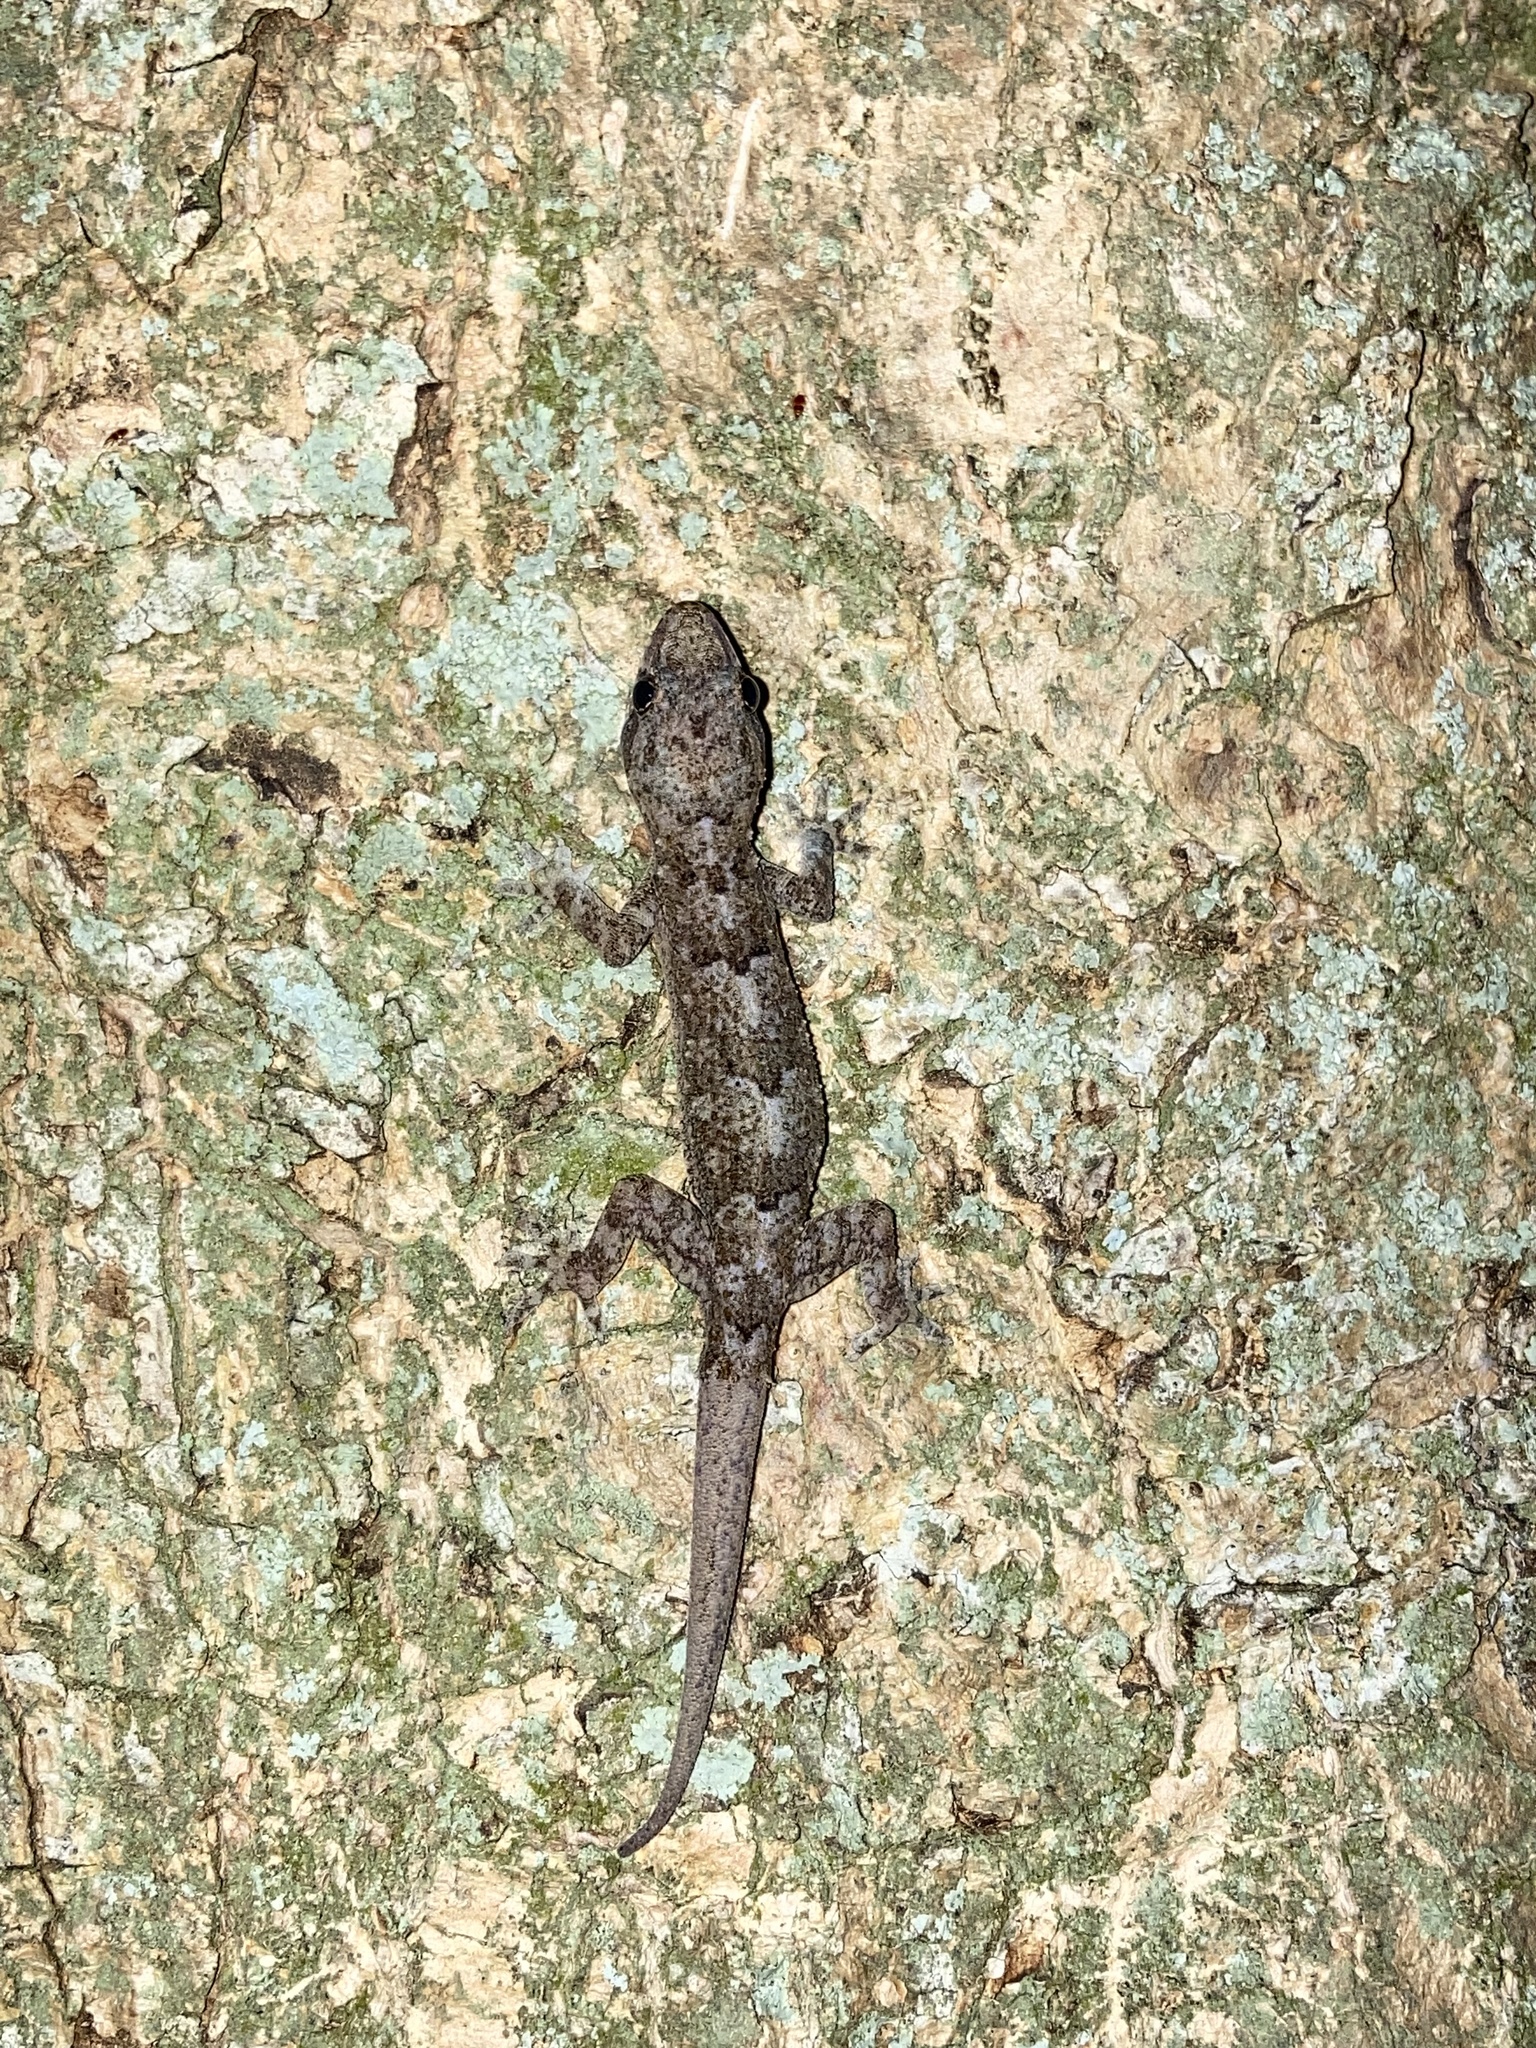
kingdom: Animalia
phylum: Chordata
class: Squamata
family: Gekkonidae
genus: Hemidactylus
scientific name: Hemidactylus mabouia
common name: House gecko
